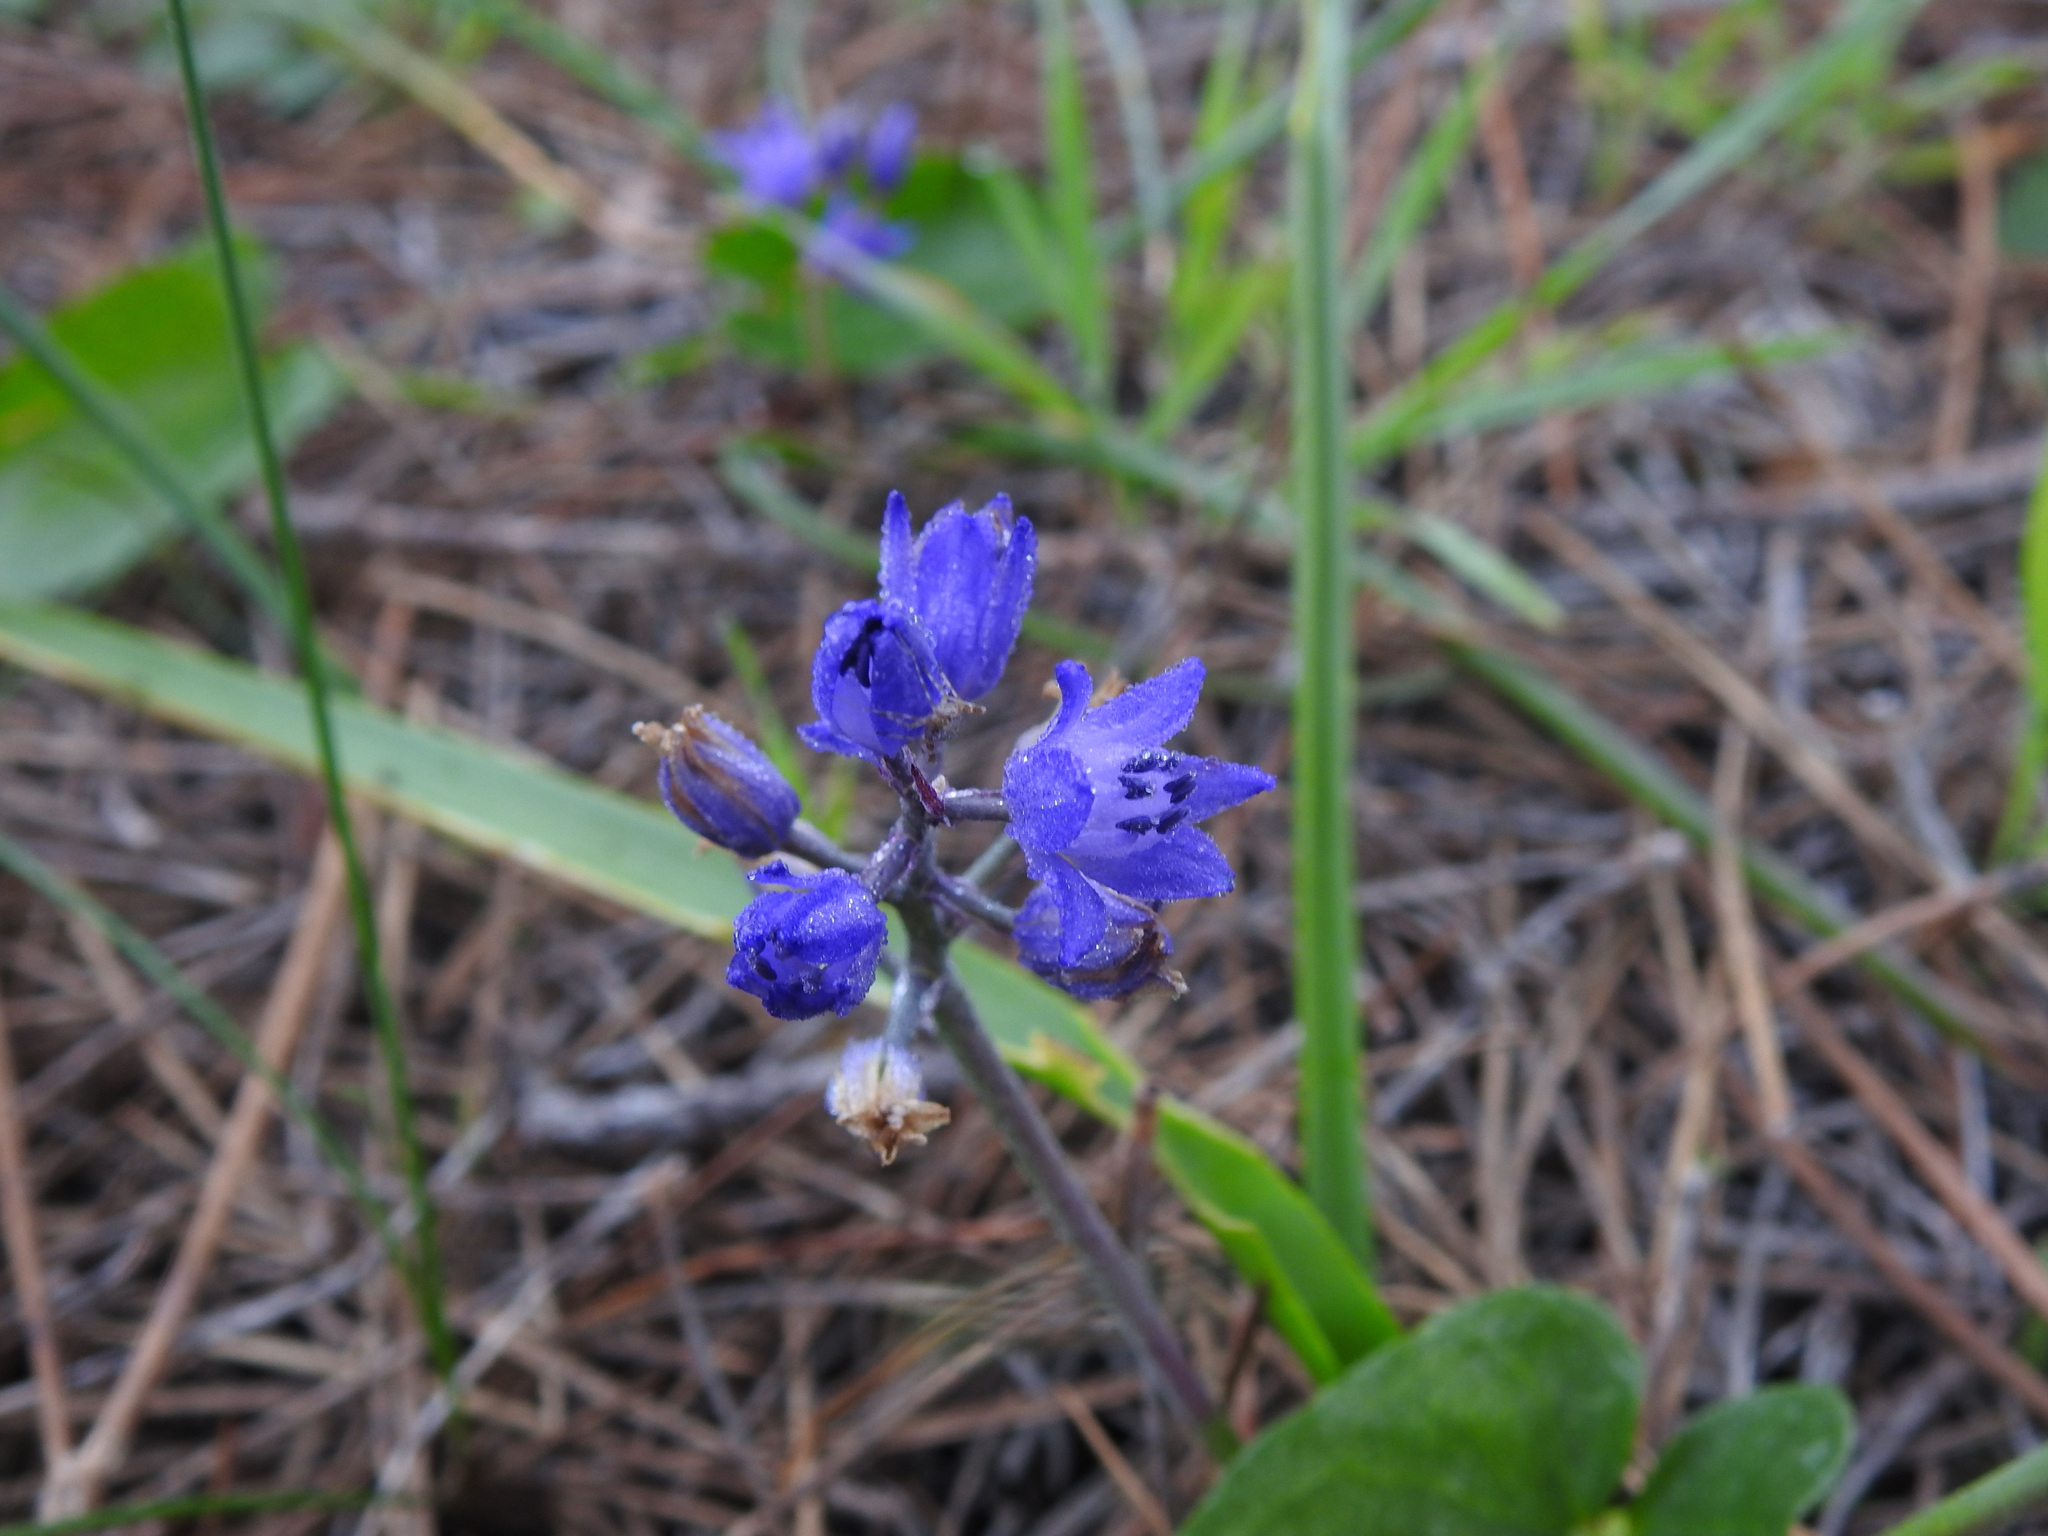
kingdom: Plantae
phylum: Tracheophyta
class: Liliopsida
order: Asparagales
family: Asparagaceae
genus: Scilla
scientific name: Scilla verna
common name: Spring squill
